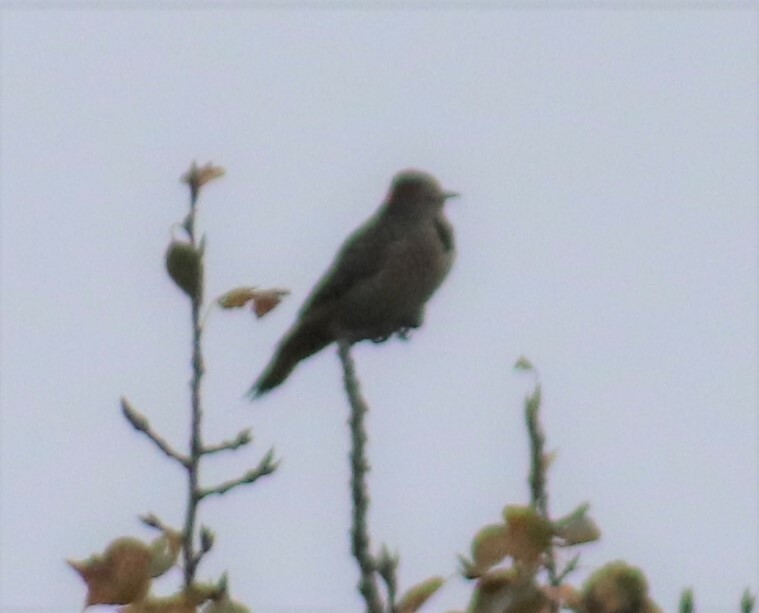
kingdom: Animalia
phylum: Chordata
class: Aves
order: Piciformes
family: Picidae
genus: Colaptes
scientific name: Colaptes auratus
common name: Northern flicker
